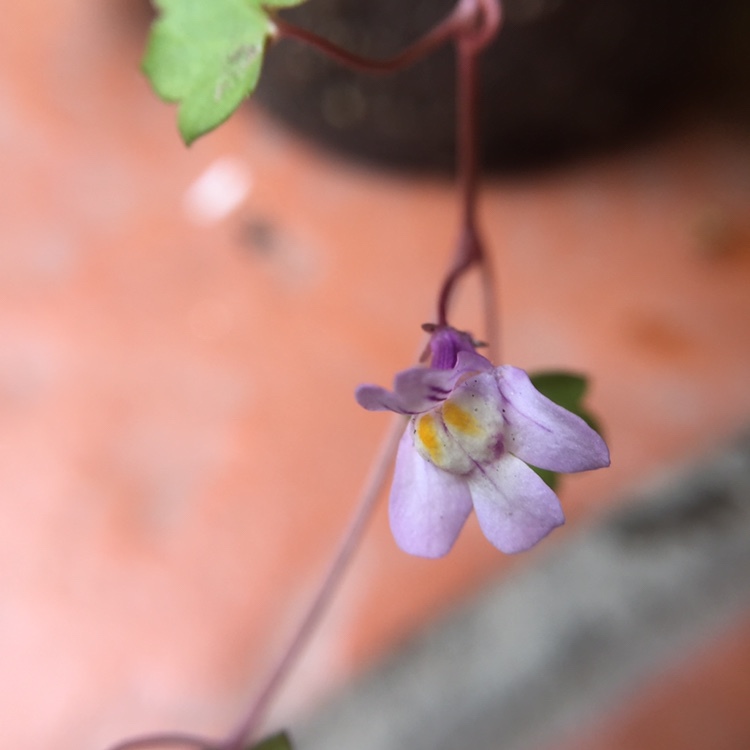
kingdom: Plantae
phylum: Tracheophyta
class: Magnoliopsida
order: Lamiales
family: Plantaginaceae
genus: Cymbalaria
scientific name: Cymbalaria muralis
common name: Ivy-leaved toadflax
